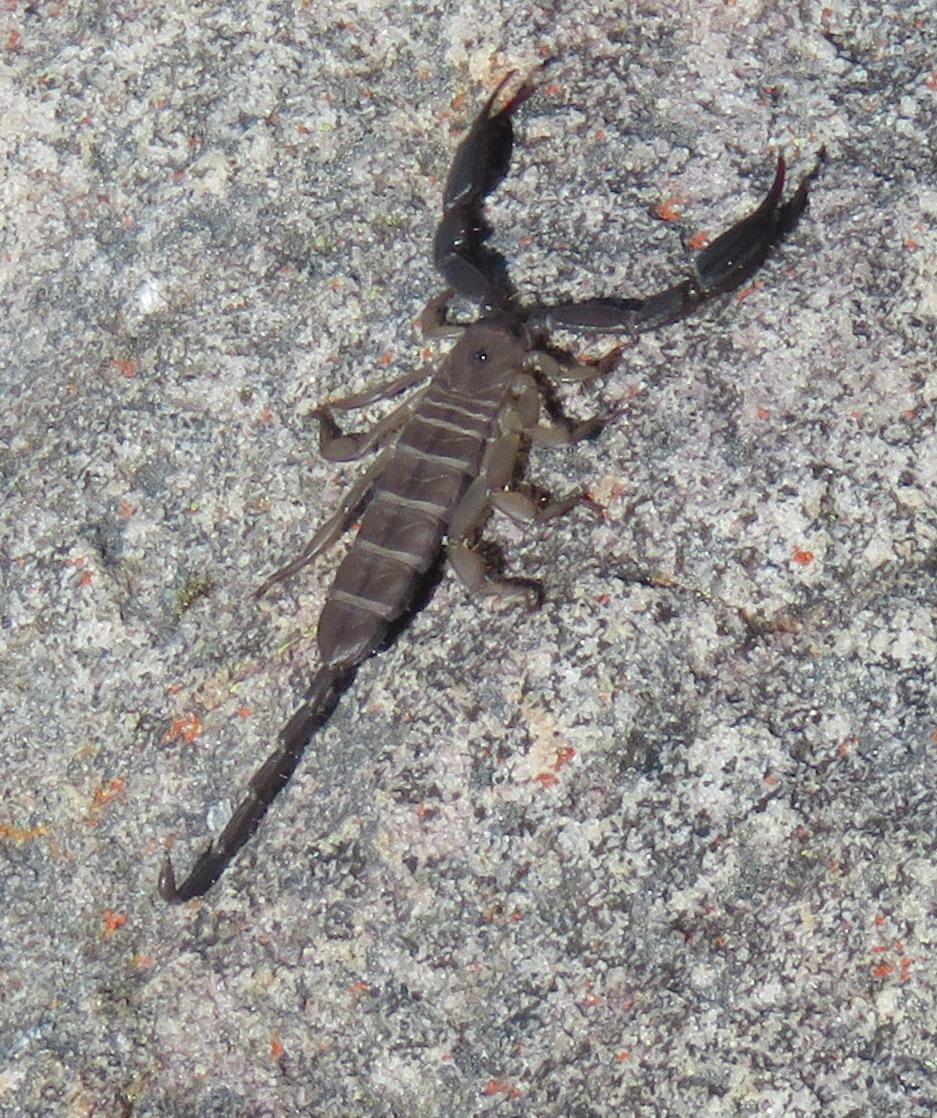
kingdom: Animalia
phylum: Arthropoda
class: Arachnida
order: Scorpiones
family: Hormuridae
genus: Hadogenes
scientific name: Hadogenes minor
